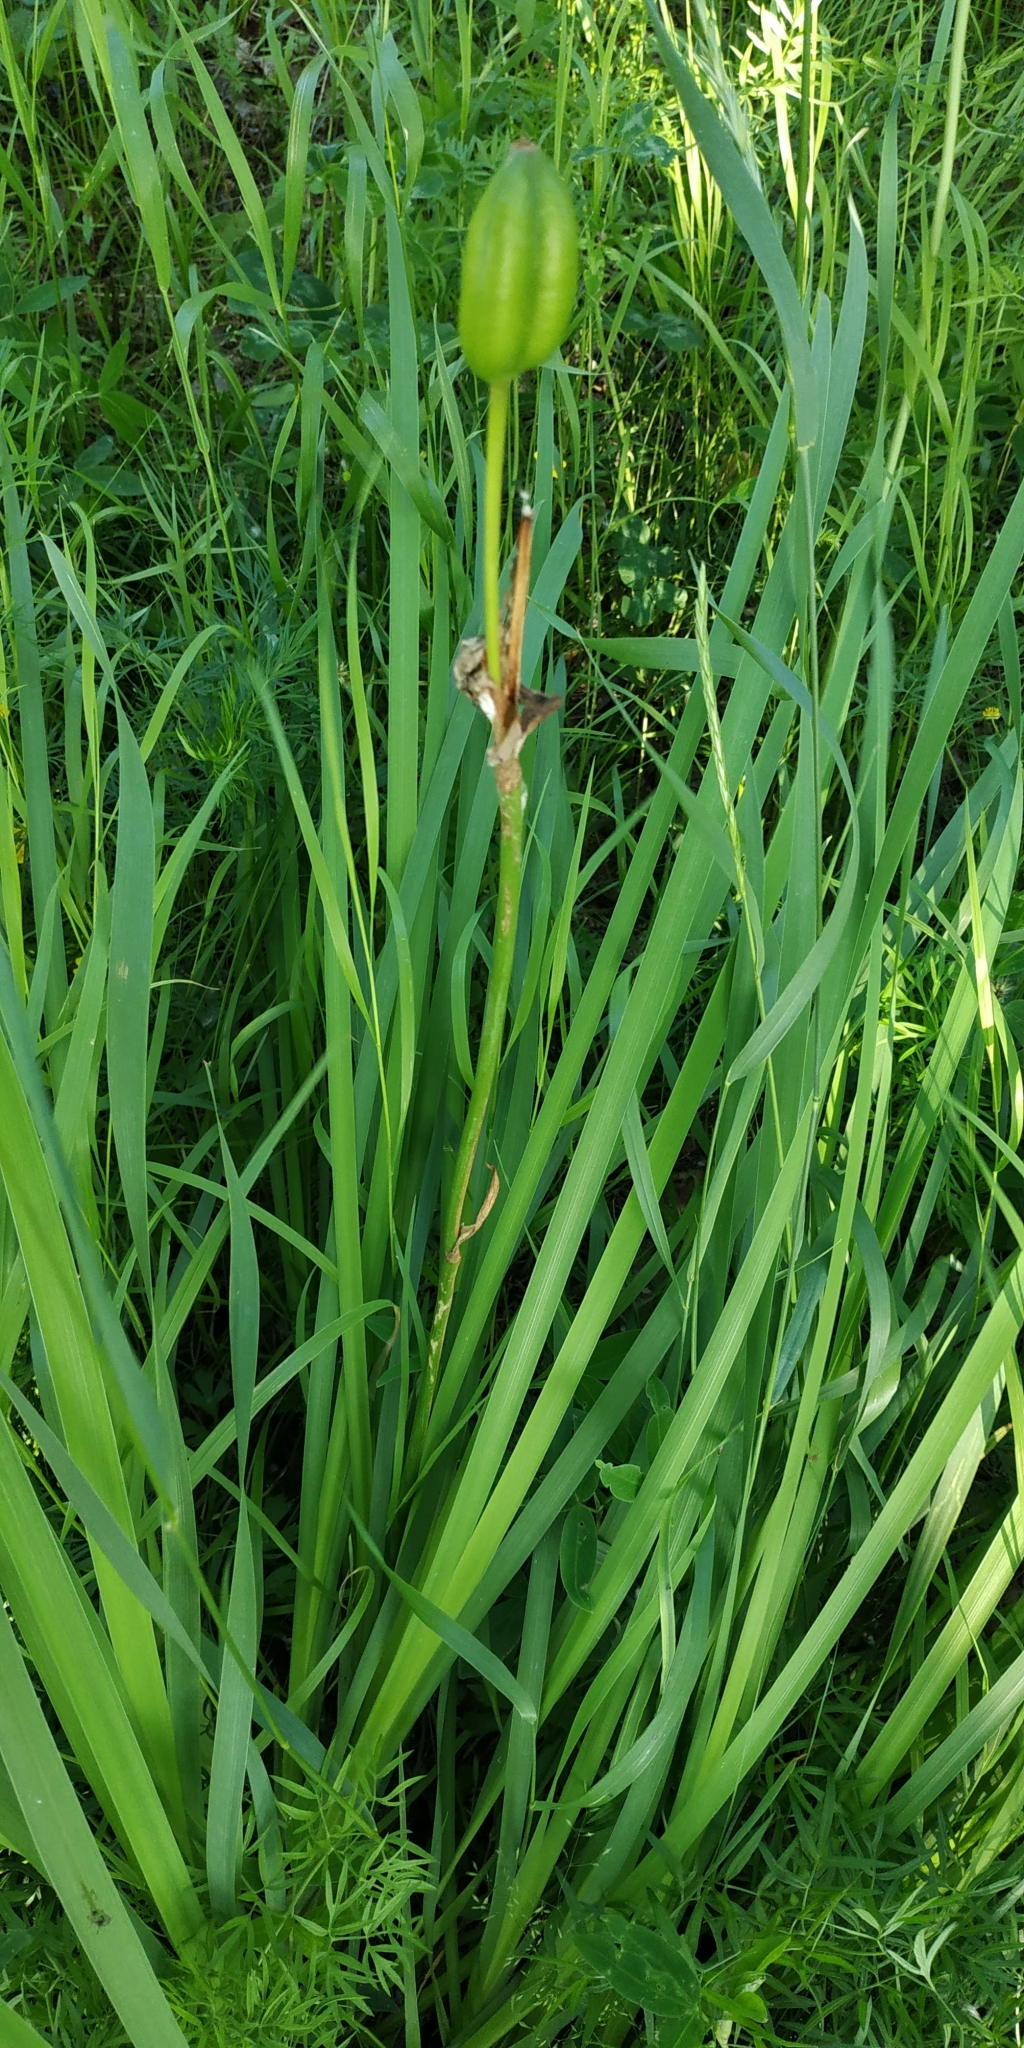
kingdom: Plantae
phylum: Tracheophyta
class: Liliopsida
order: Asparagales
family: Iridaceae
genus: Iris
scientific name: Iris sibirica
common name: Siberian iris
